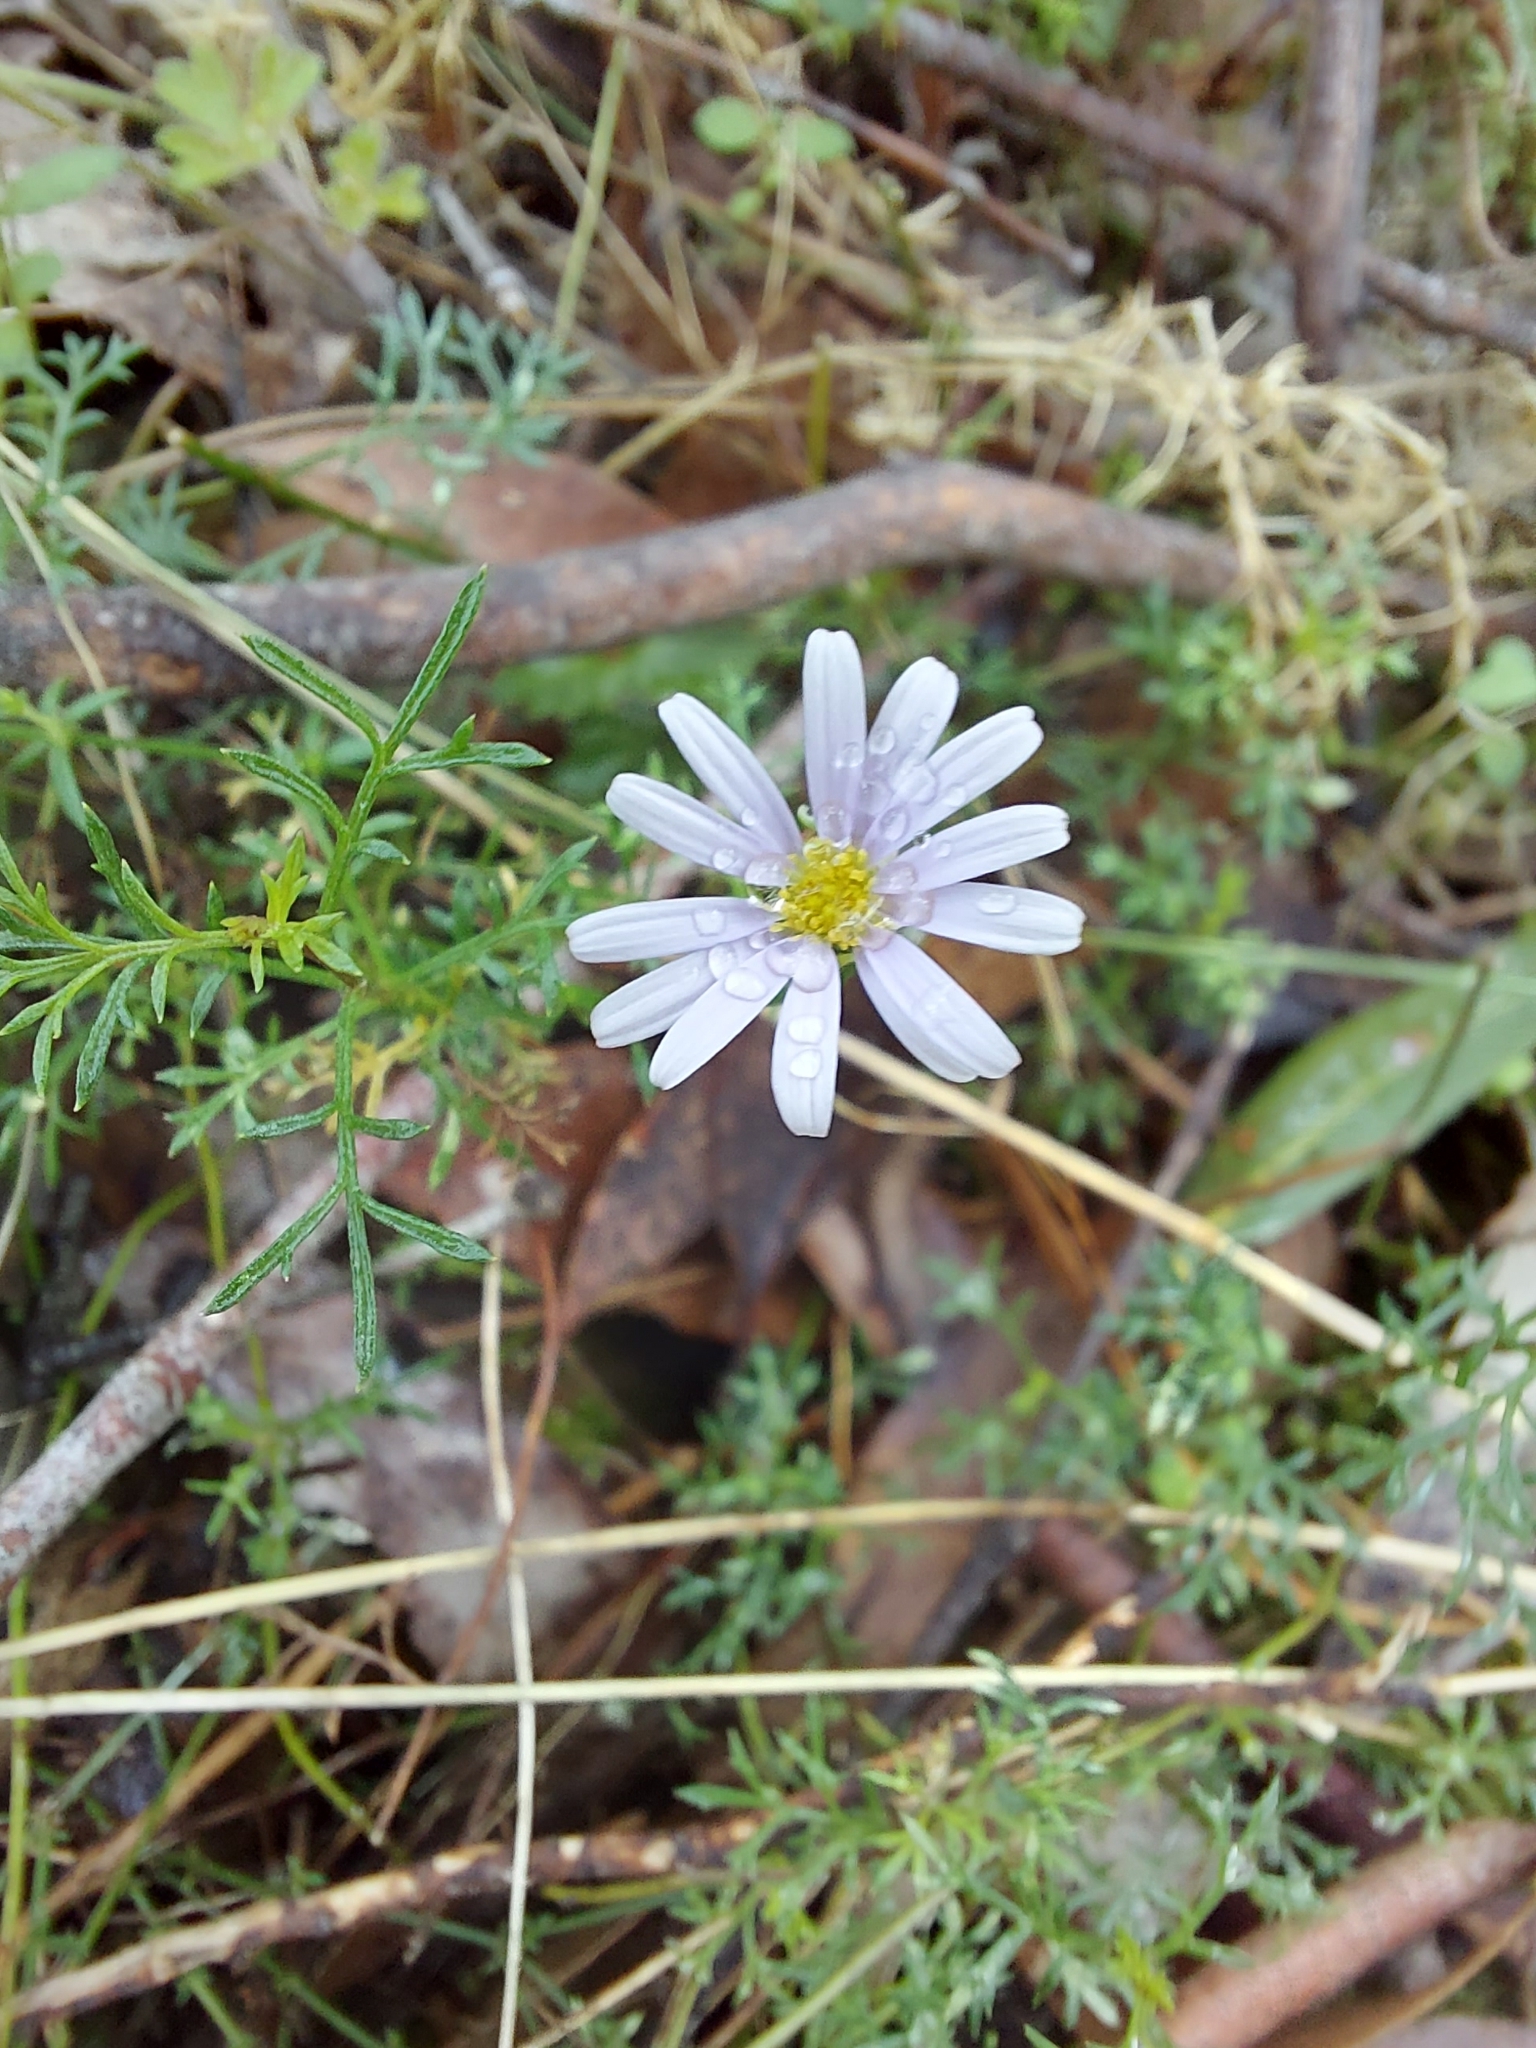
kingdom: Plantae
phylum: Tracheophyta
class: Magnoliopsida
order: Asterales
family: Asteraceae
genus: Brachyscome
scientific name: Brachyscome multifida
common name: Cut-leaf daisy
